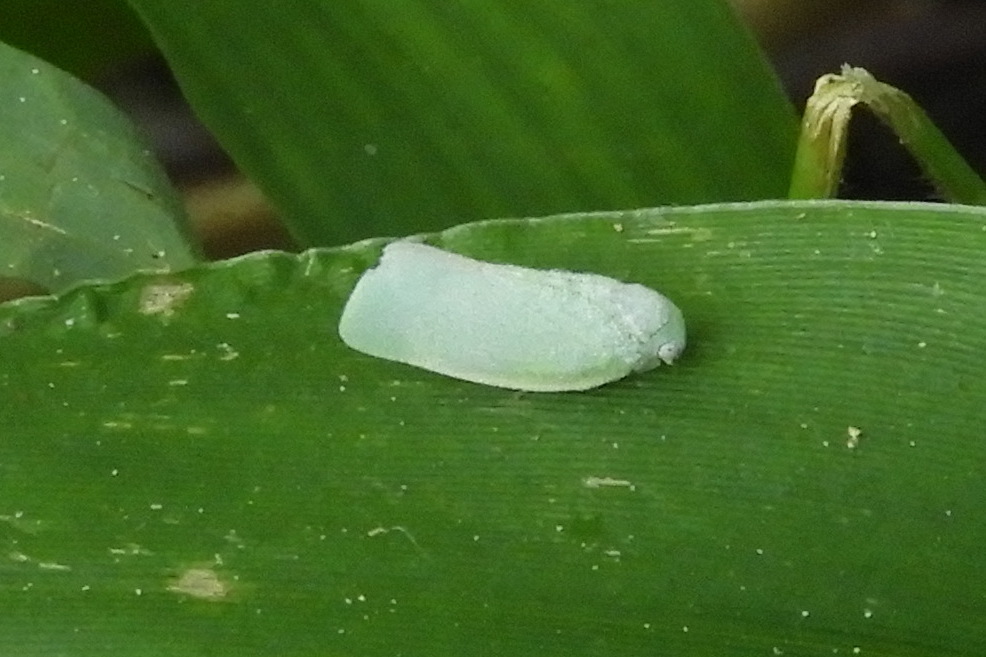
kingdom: Animalia
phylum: Arthropoda
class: Insecta
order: Hemiptera
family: Flatidae
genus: Flatormenis
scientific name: Flatormenis proxima
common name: Northern flatid planthopper
